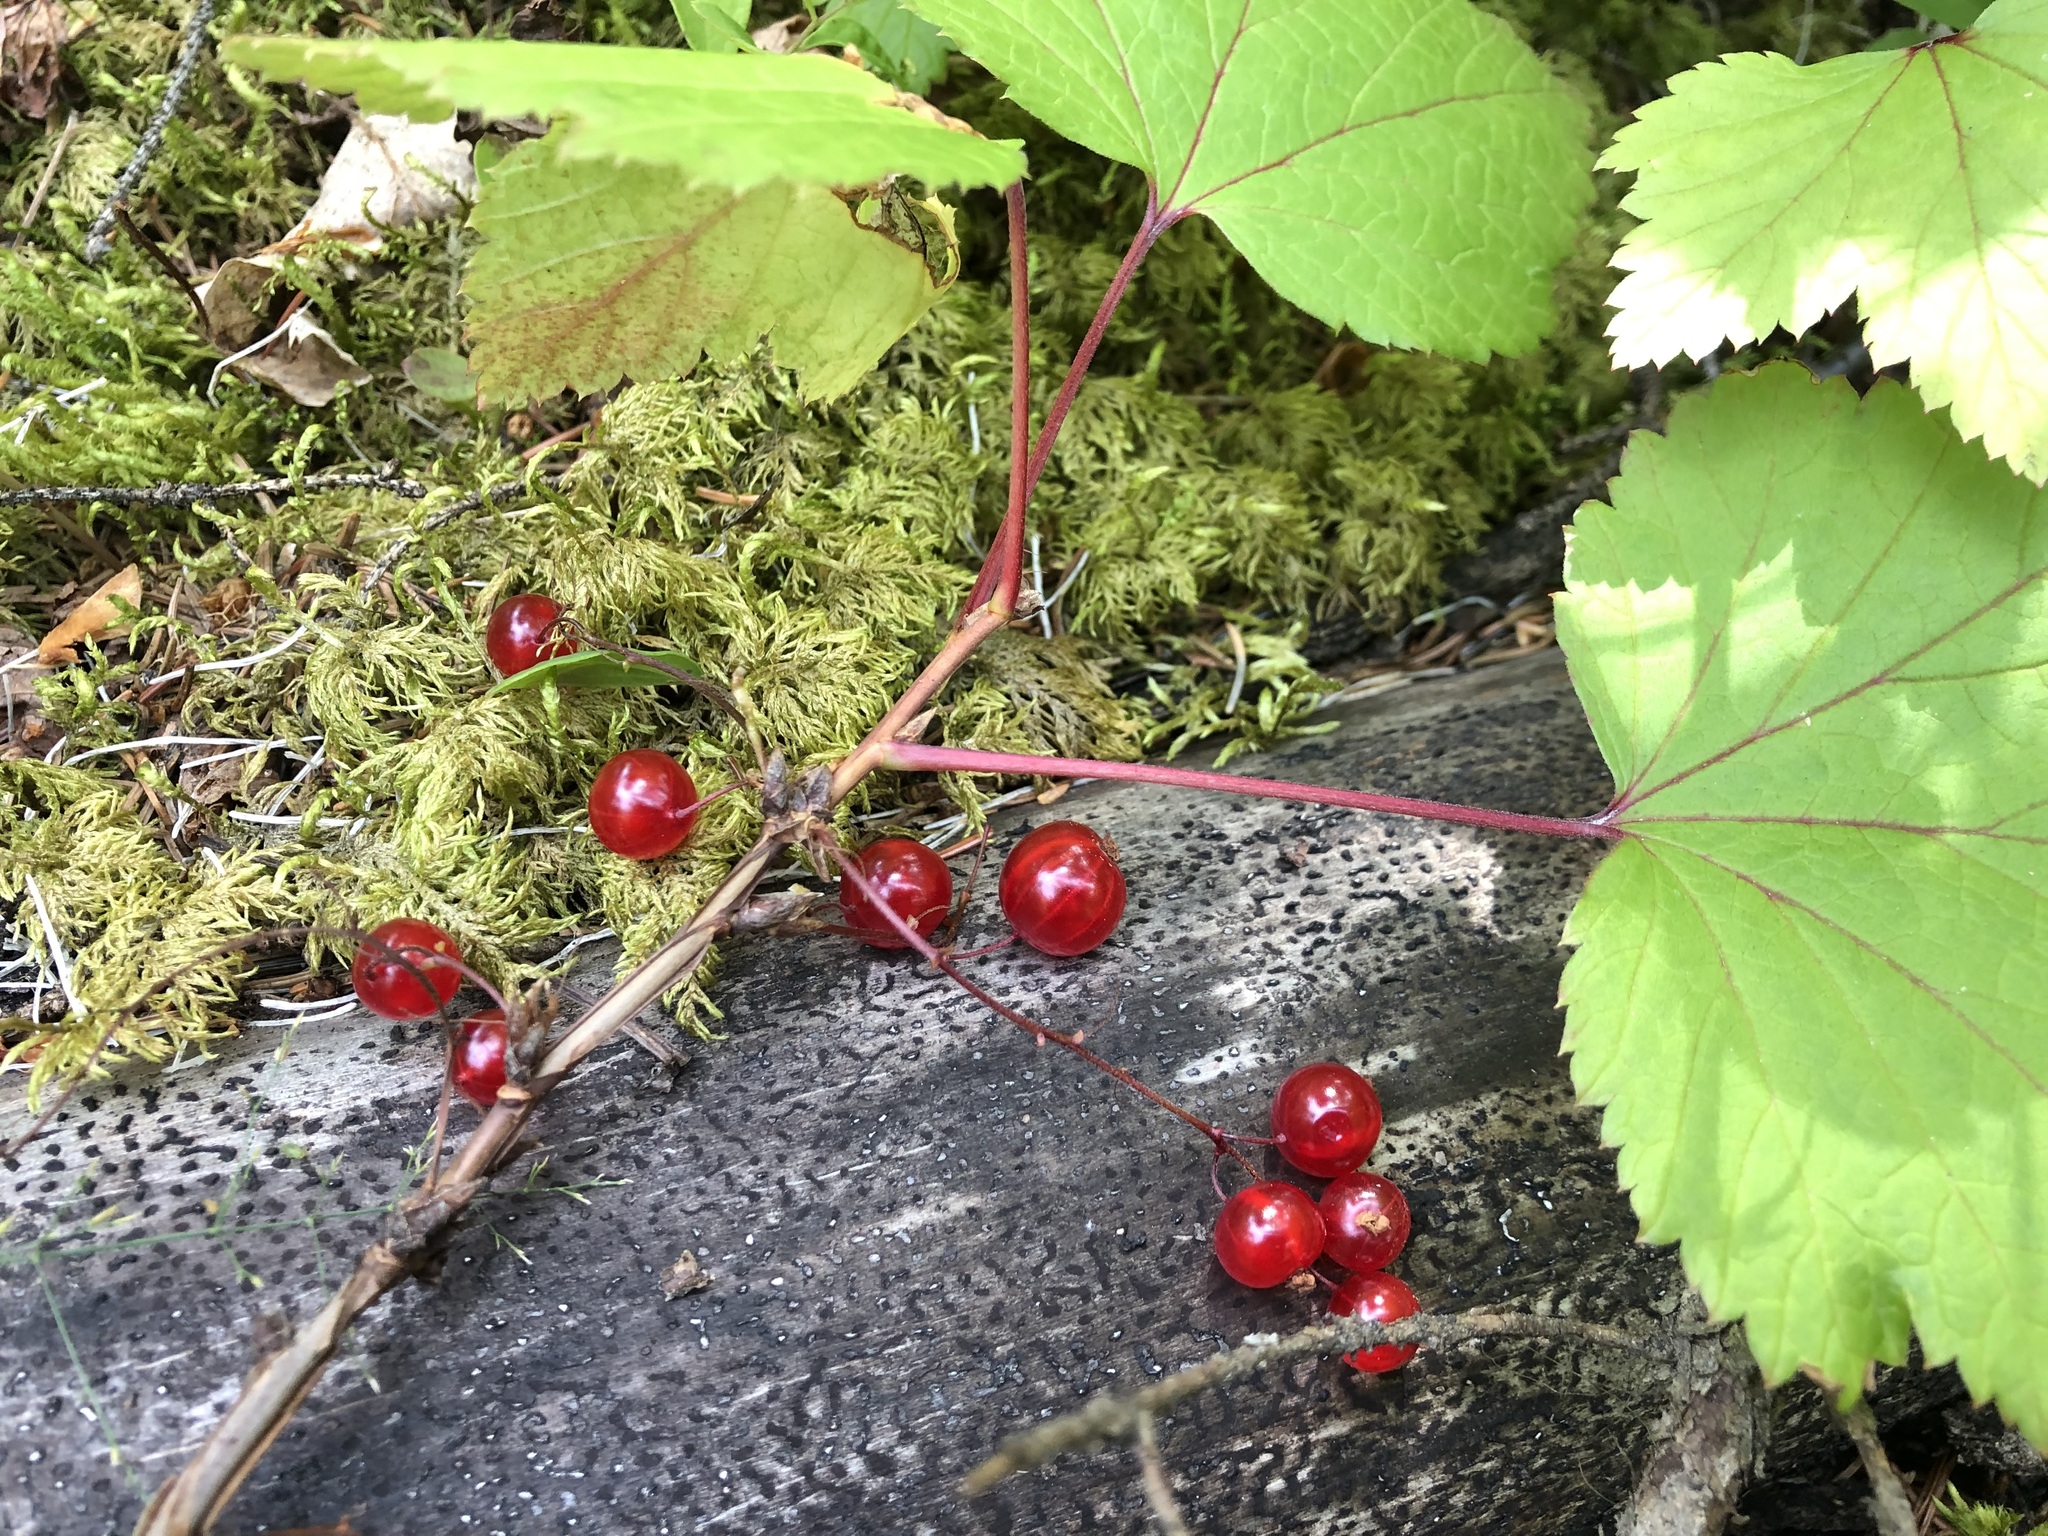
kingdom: Plantae
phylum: Tracheophyta
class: Magnoliopsida
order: Saxifragales
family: Grossulariaceae
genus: Ribes
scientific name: Ribes triste
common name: Swamp red currant
